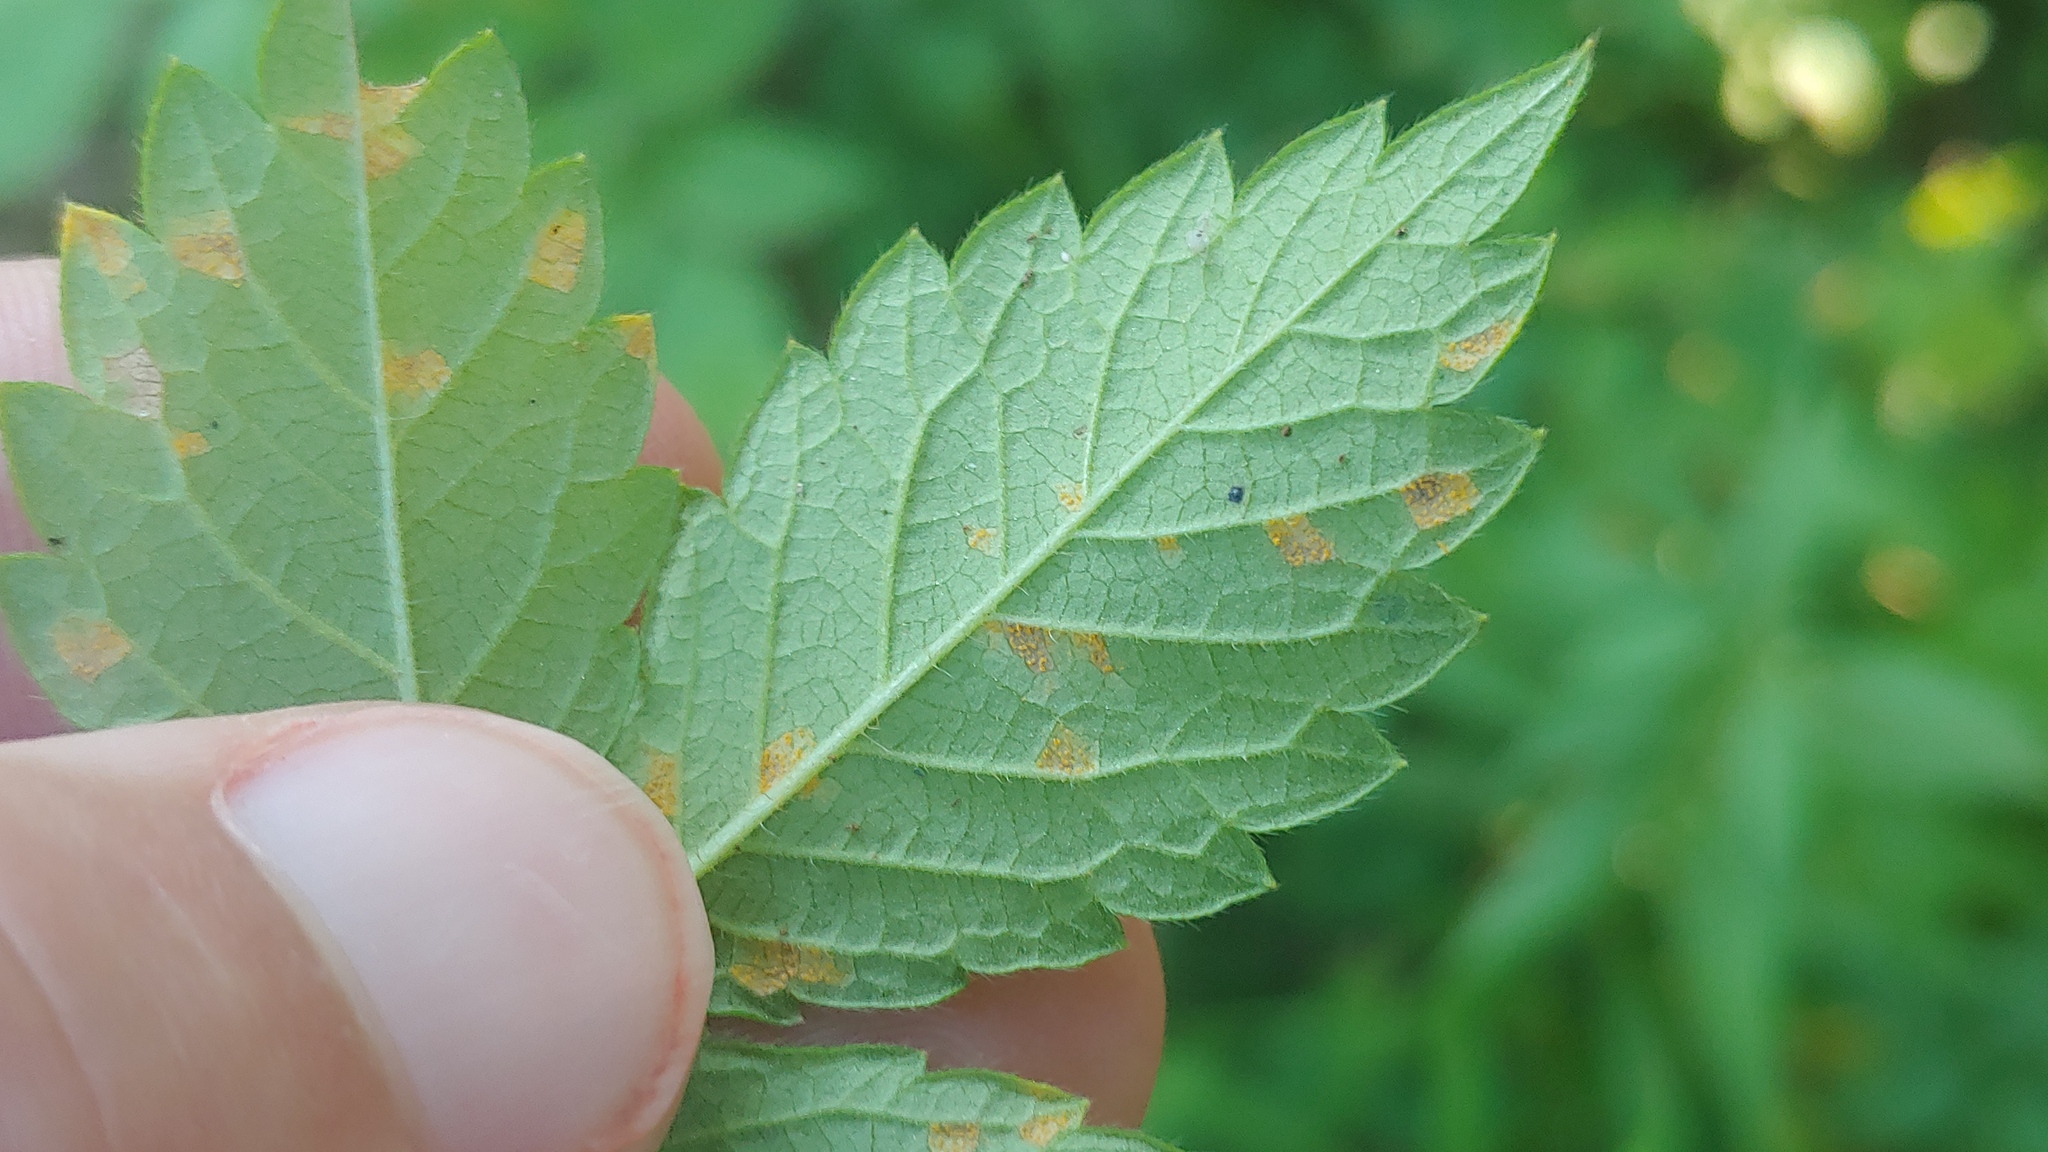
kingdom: Fungi
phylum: Basidiomycota
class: Pucciniomycetes
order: Pucciniales
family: Cronartiaceae
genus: Quasipucciniastrum
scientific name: Quasipucciniastrum ochraceum
